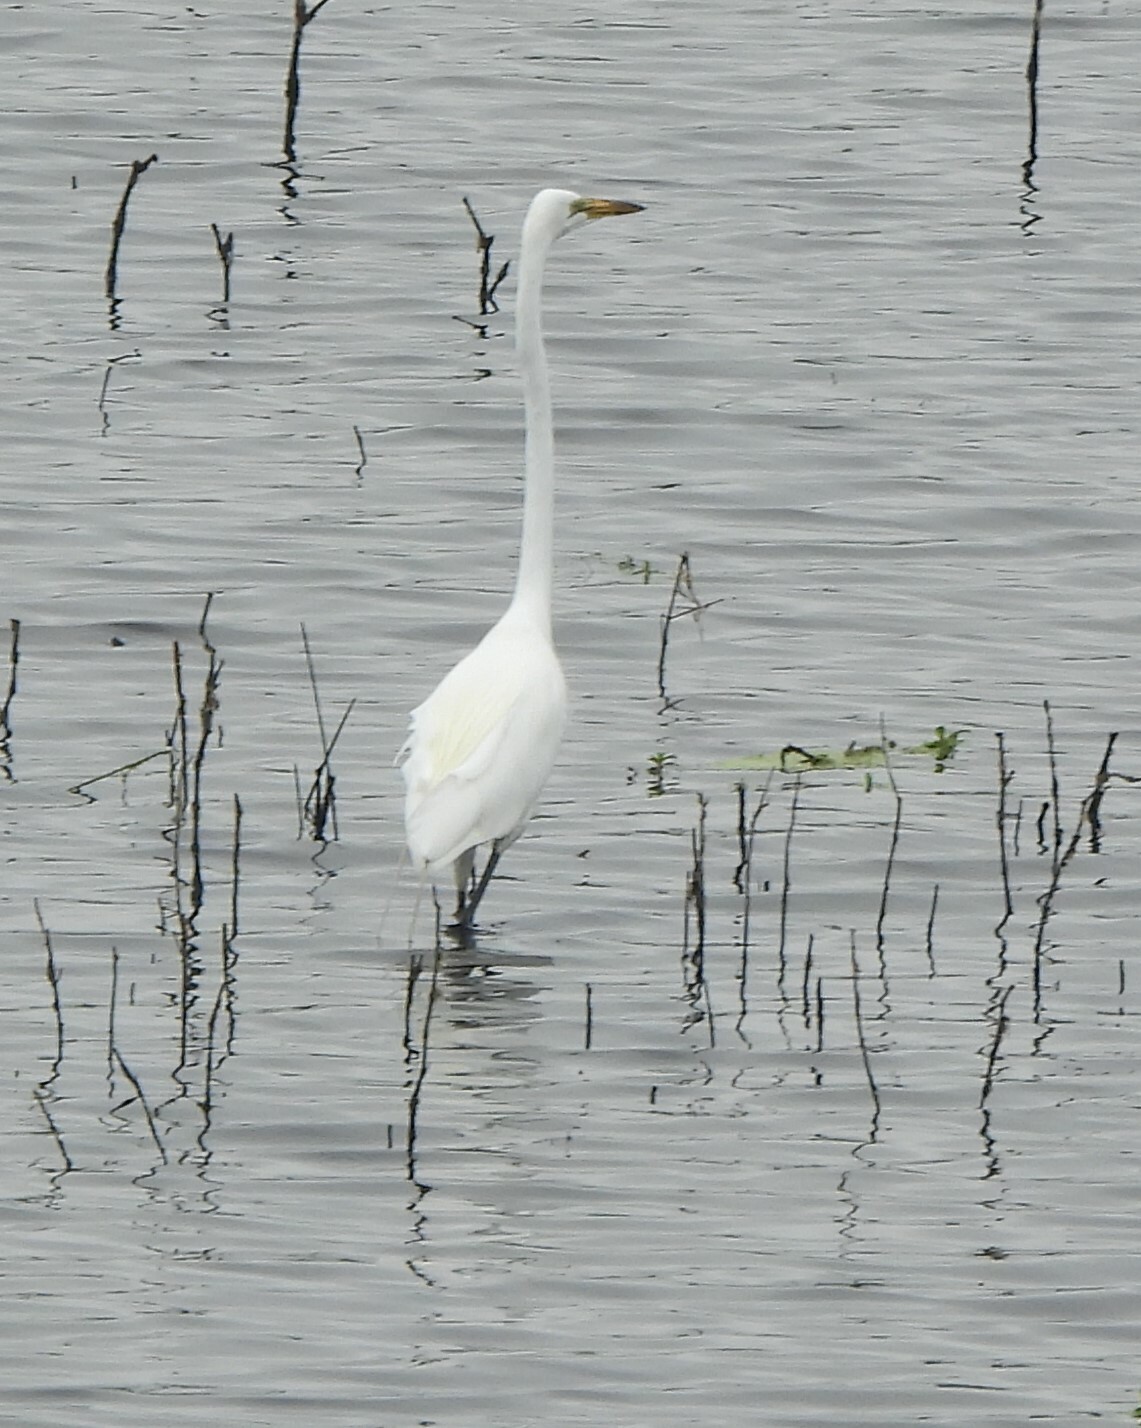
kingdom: Animalia
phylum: Chordata
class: Aves
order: Pelecaniformes
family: Ardeidae
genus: Ardea
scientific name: Ardea alba
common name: Great egret
